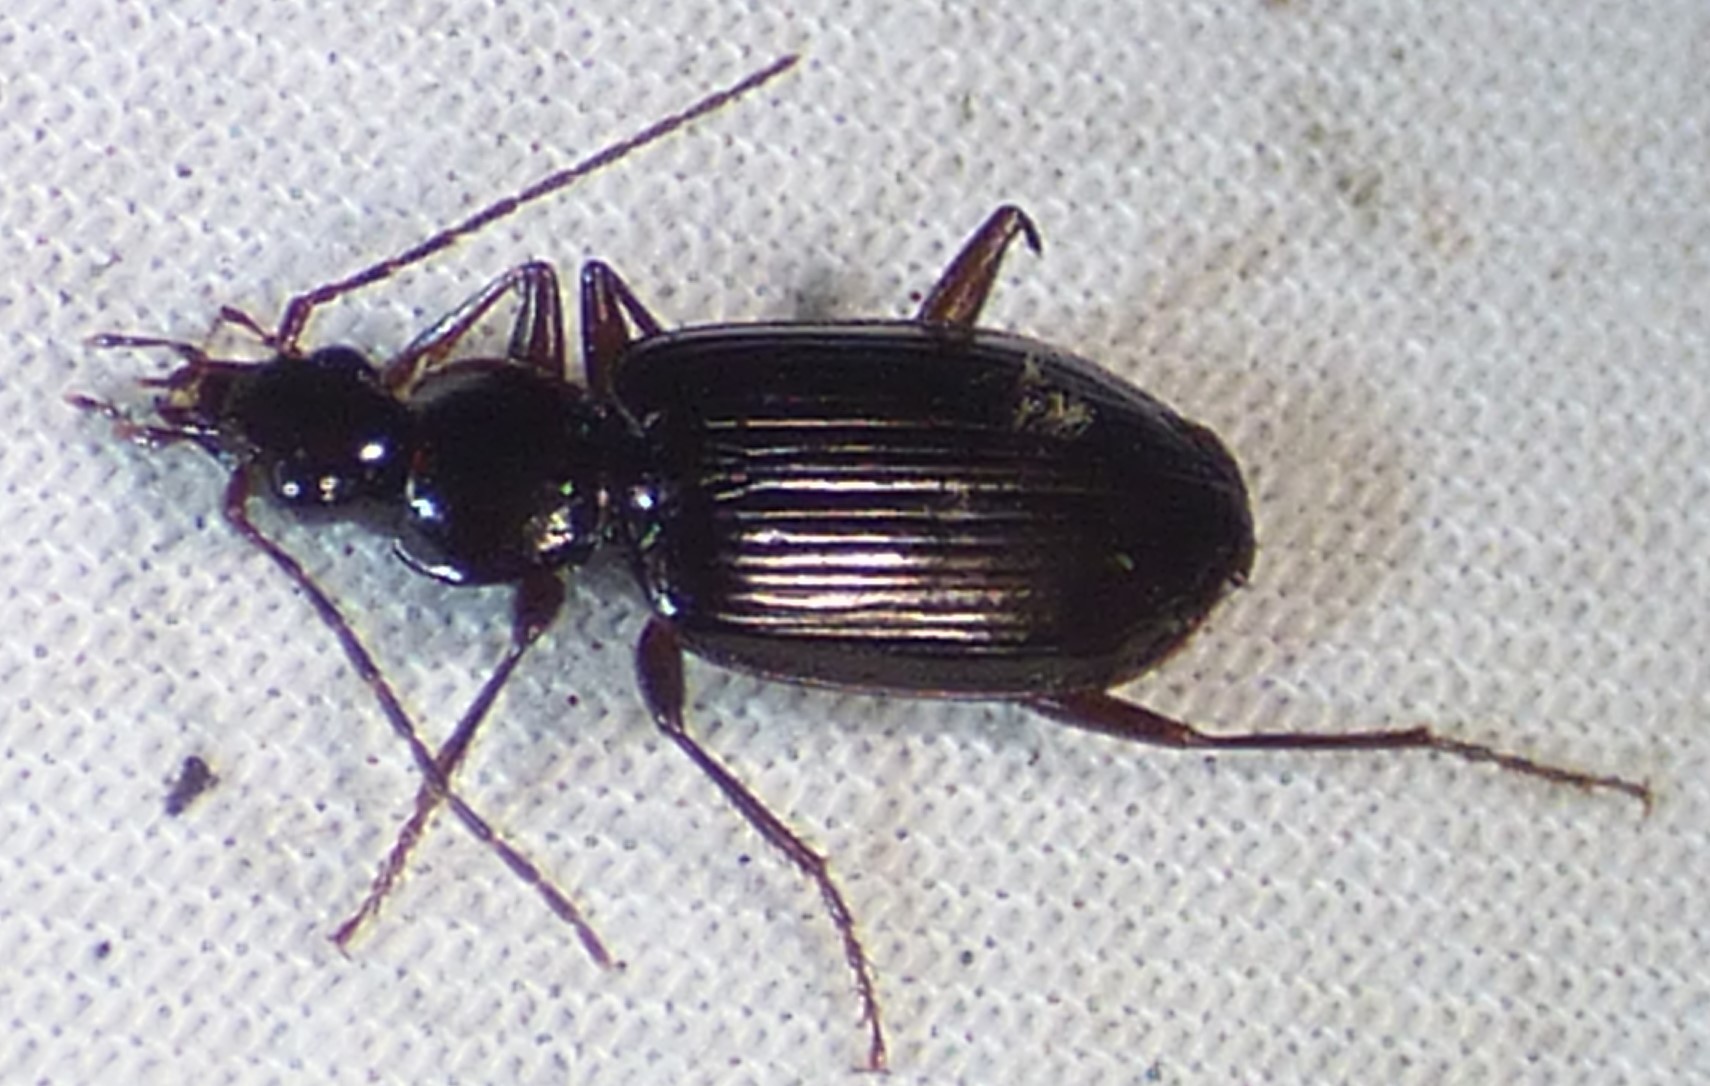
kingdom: Animalia
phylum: Arthropoda
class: Insecta
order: Coleoptera
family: Carabidae
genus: Platynus
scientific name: Platynus cincticollis
